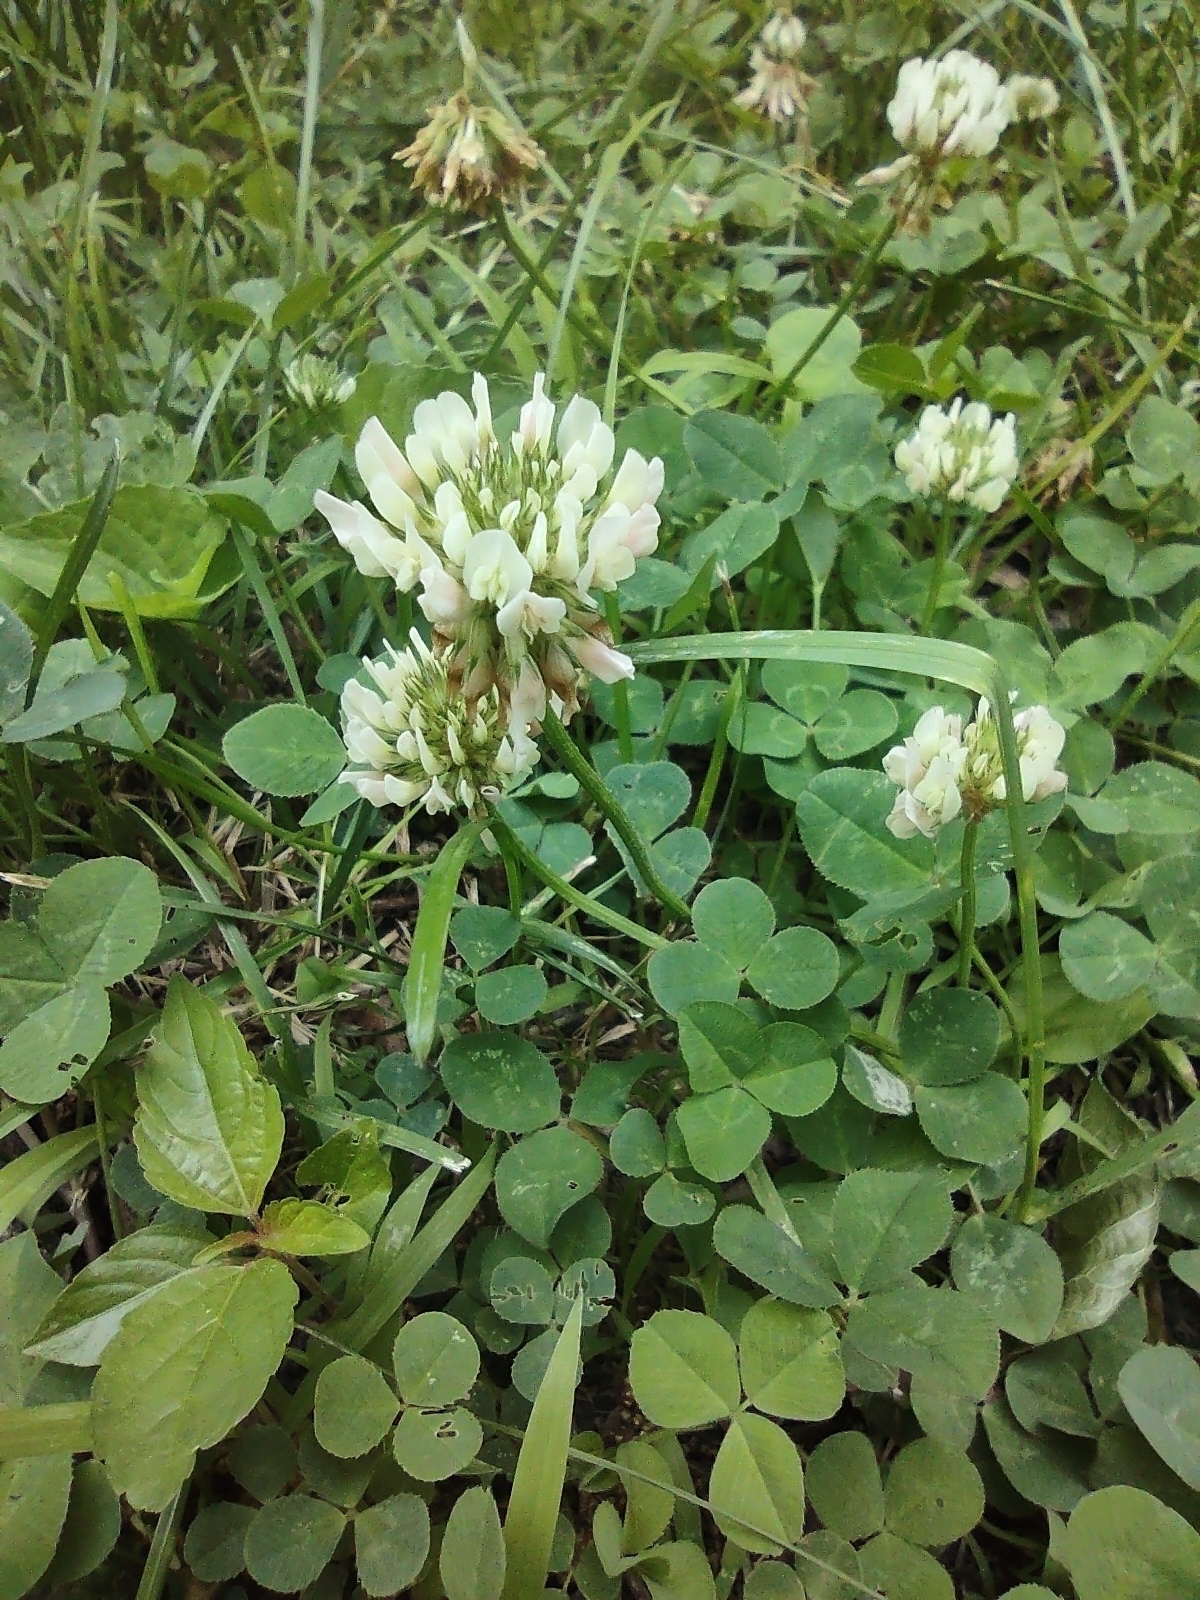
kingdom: Plantae
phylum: Tracheophyta
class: Magnoliopsida
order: Fabales
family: Fabaceae
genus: Trifolium
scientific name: Trifolium repens
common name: White clover
